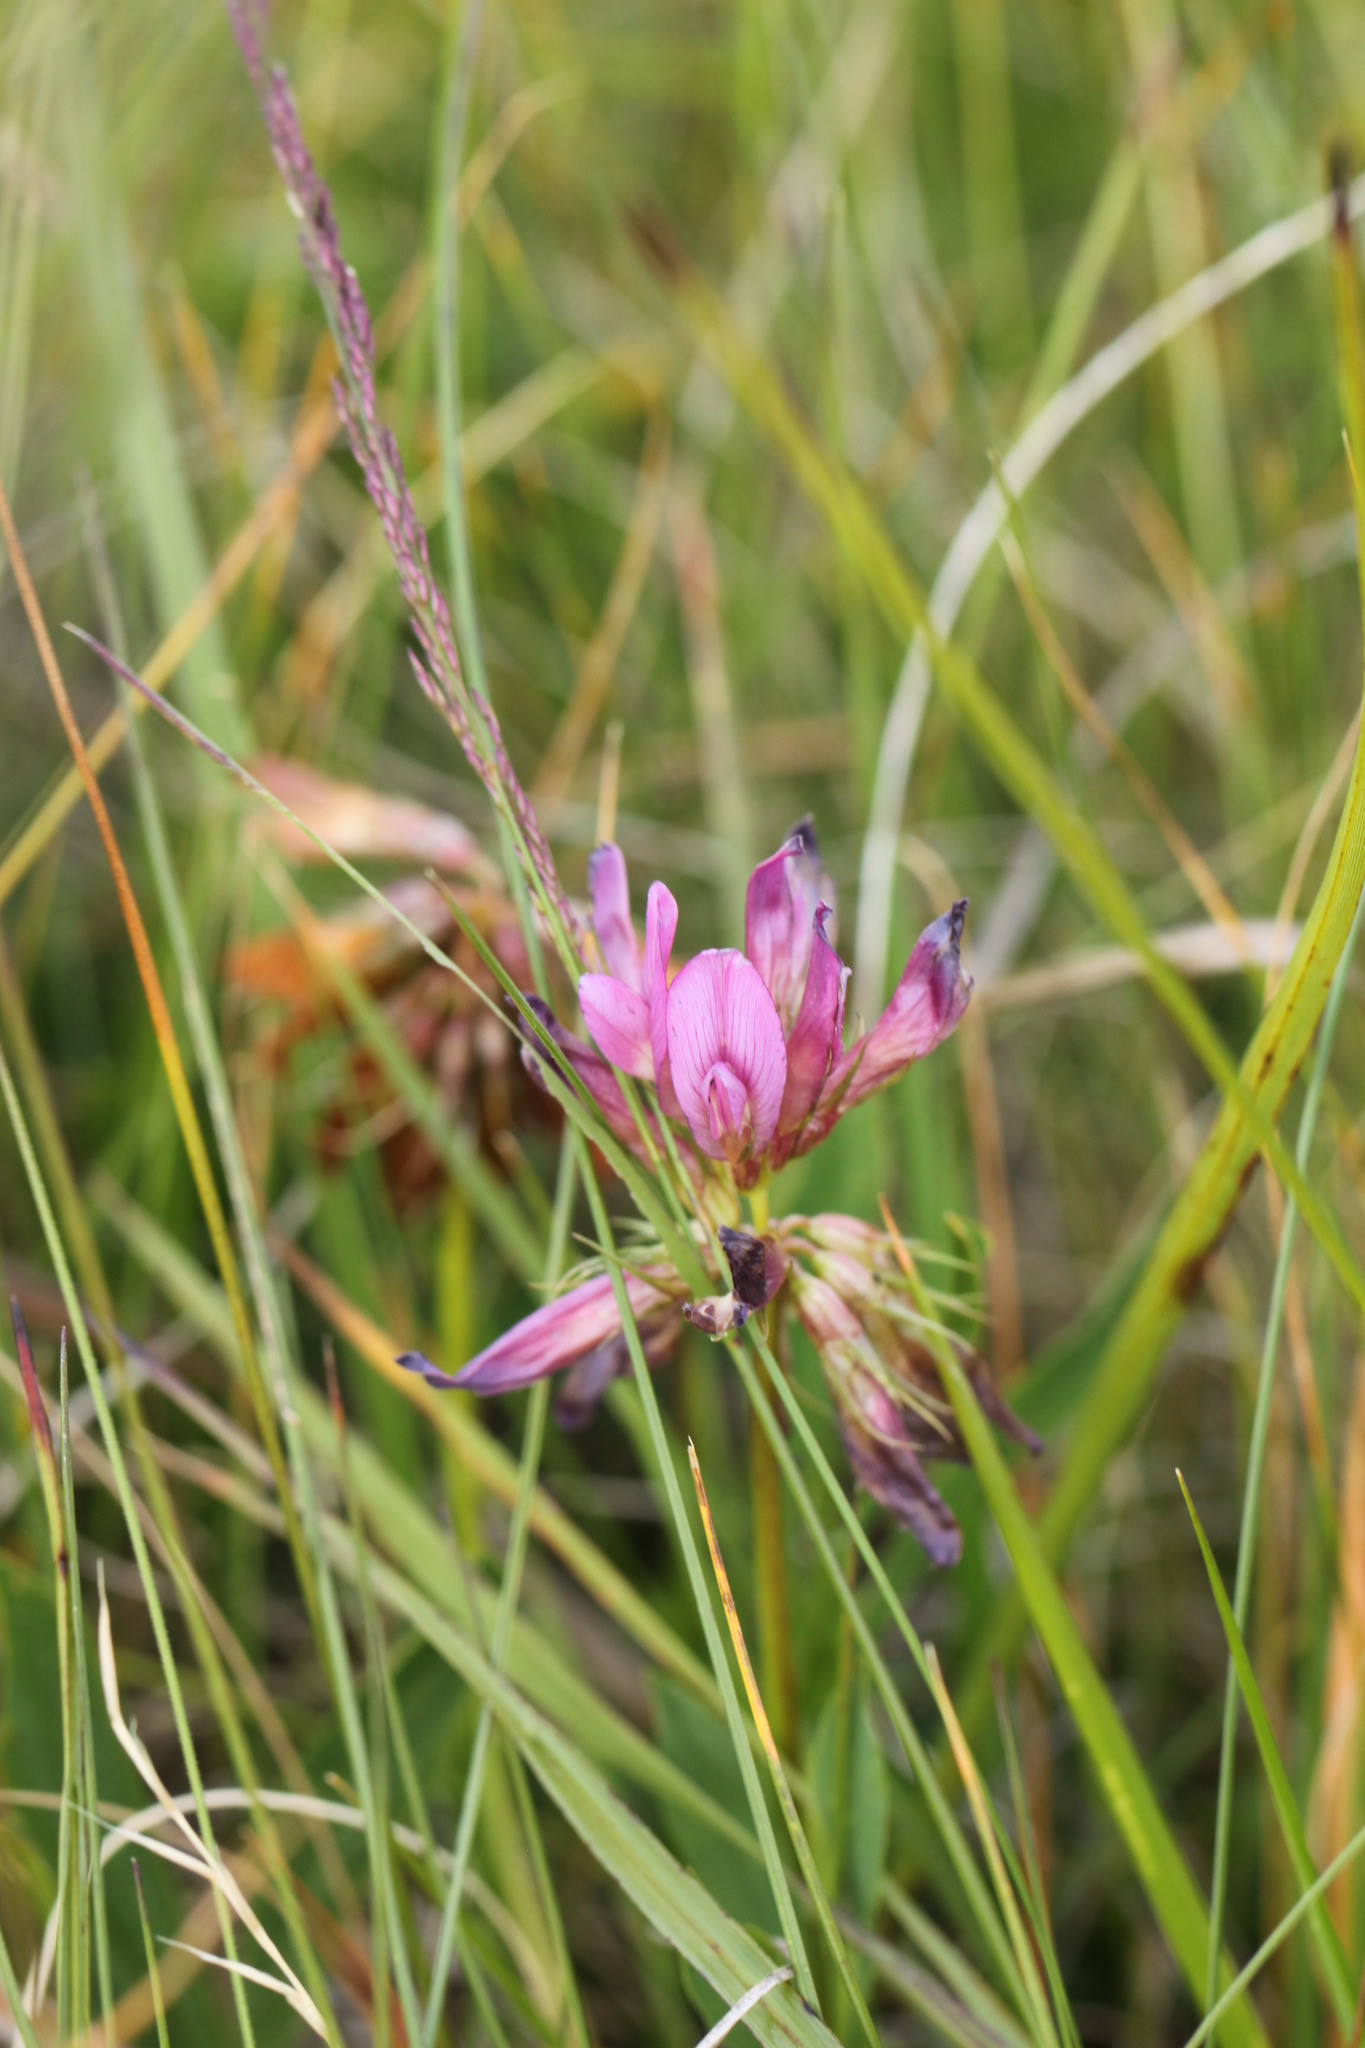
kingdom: Plantae
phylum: Tracheophyta
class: Magnoliopsida
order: Fabales
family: Fabaceae
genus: Trifolium
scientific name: Trifolium alpinum
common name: Alpine clover
